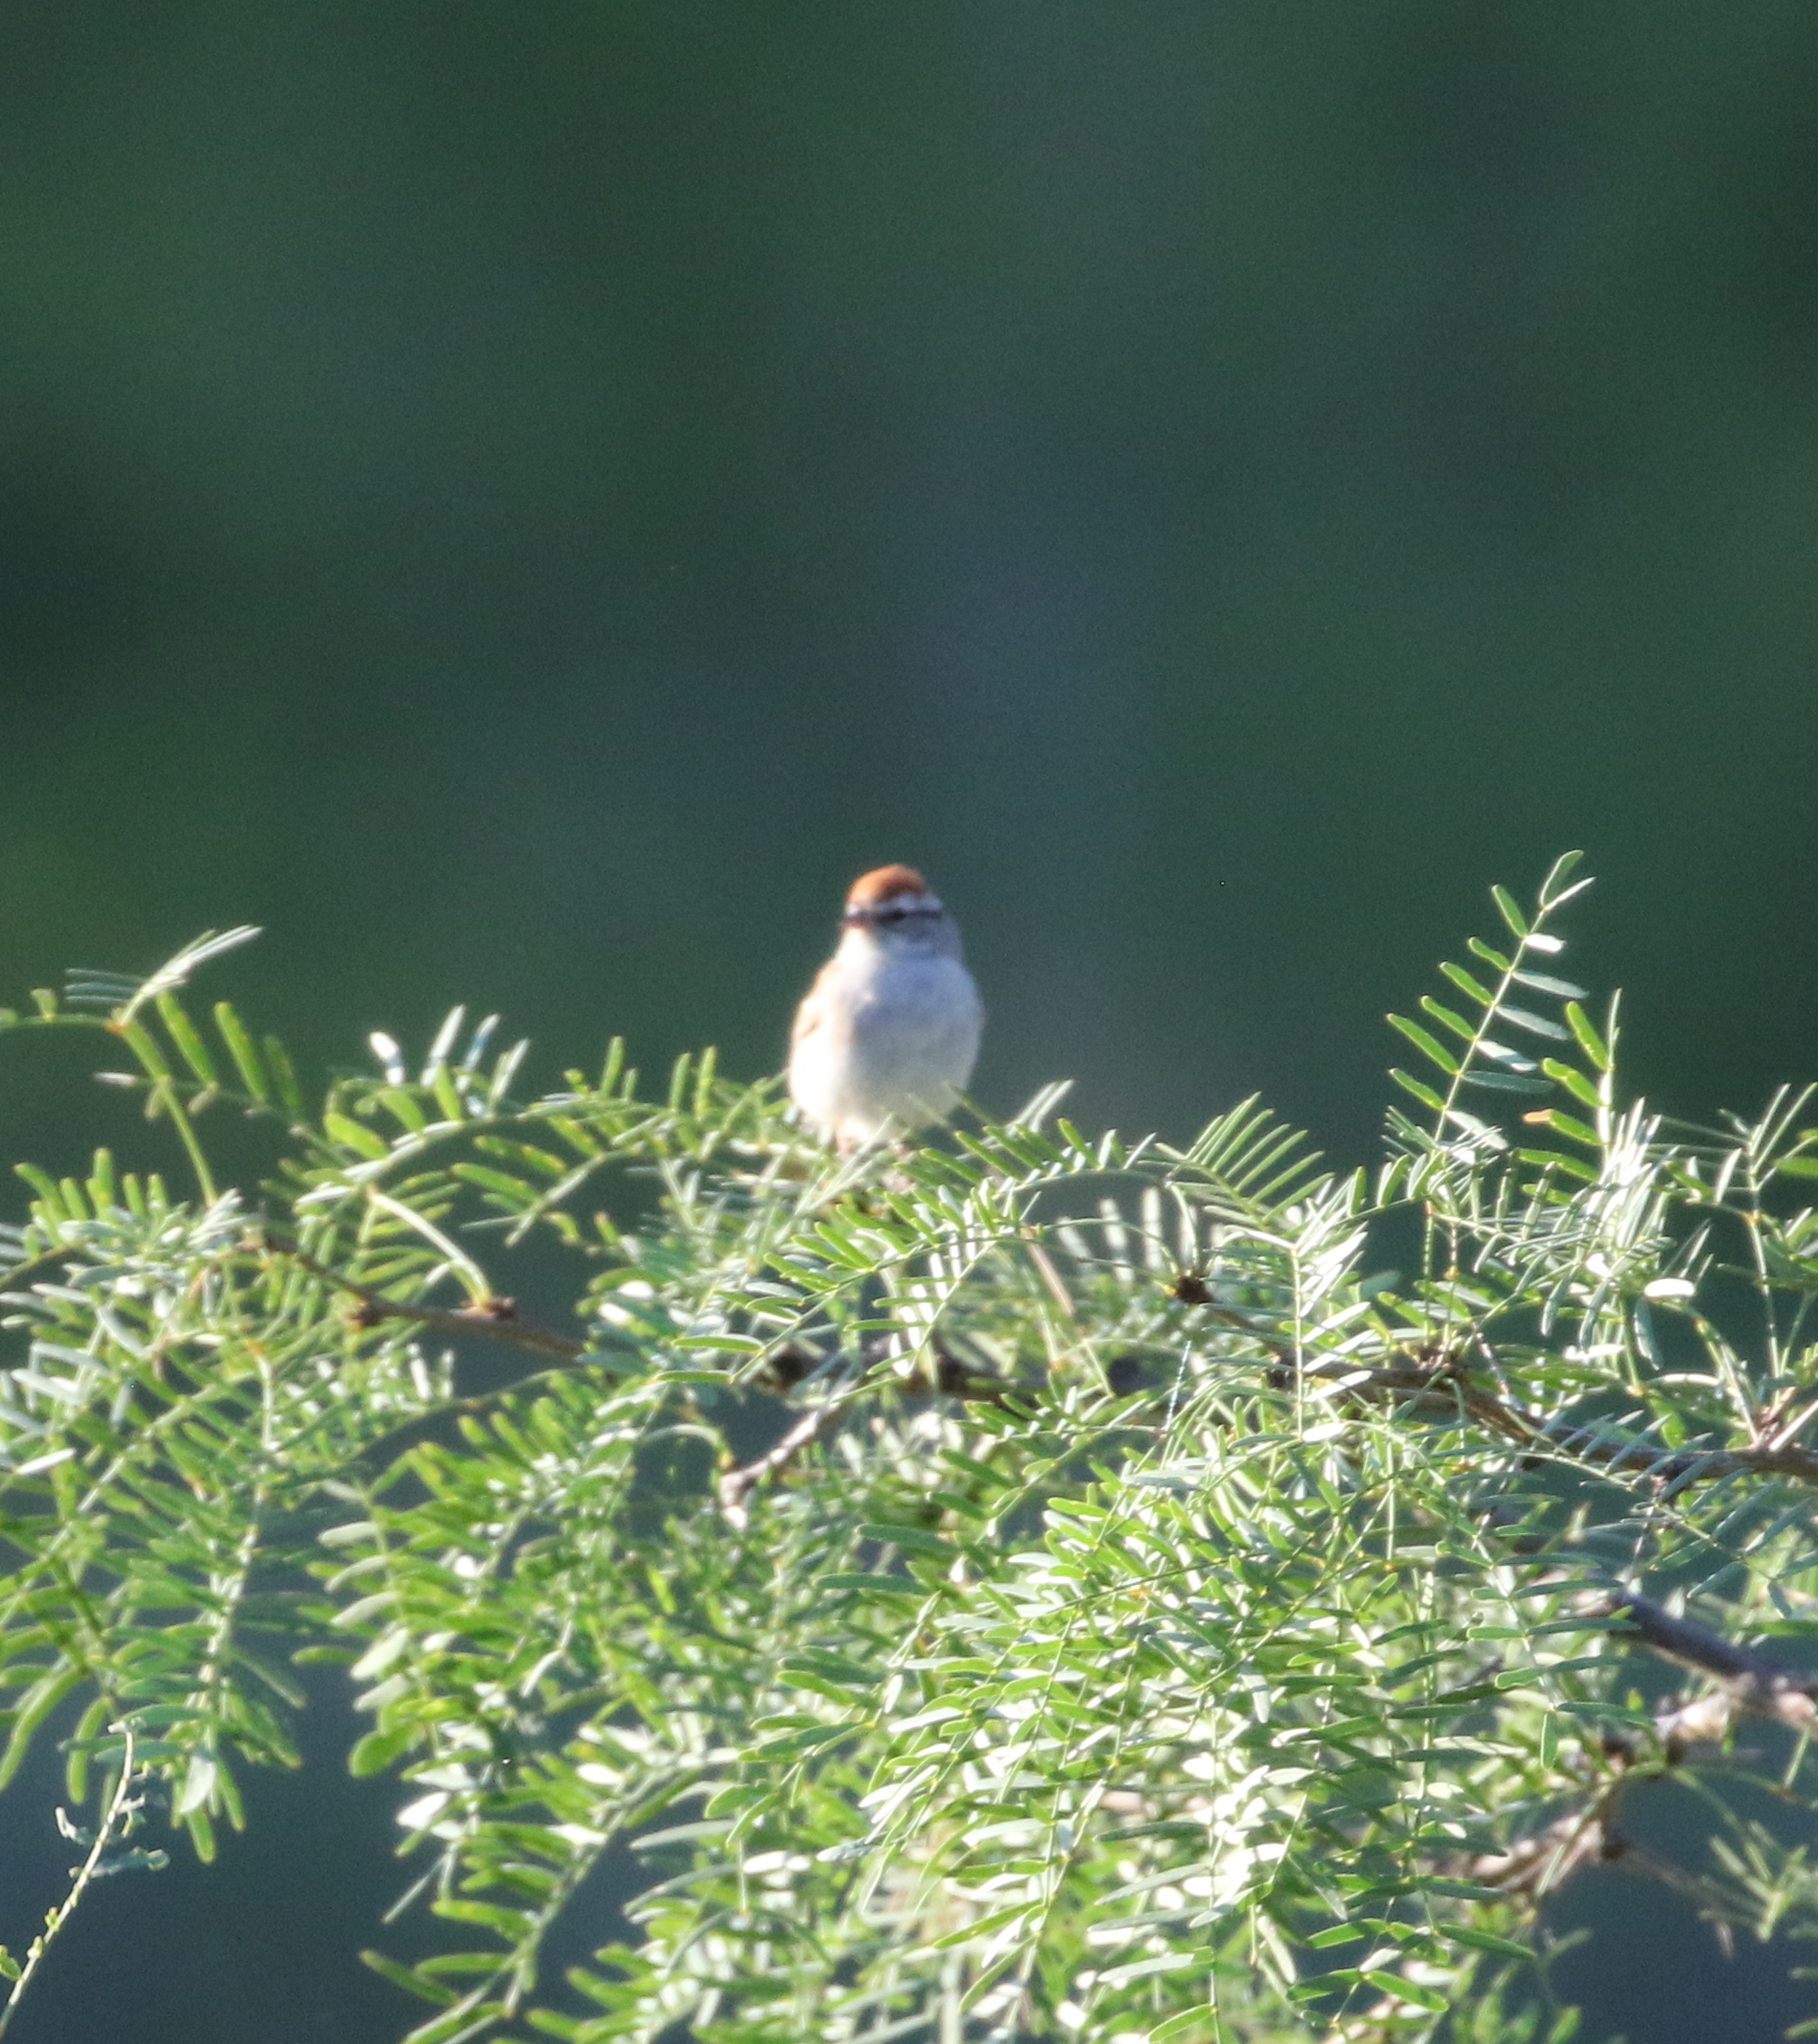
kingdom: Animalia
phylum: Chordata
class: Aves
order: Passeriformes
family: Passerellidae
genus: Spizella
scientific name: Spizella passerina
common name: Chipping sparrow
